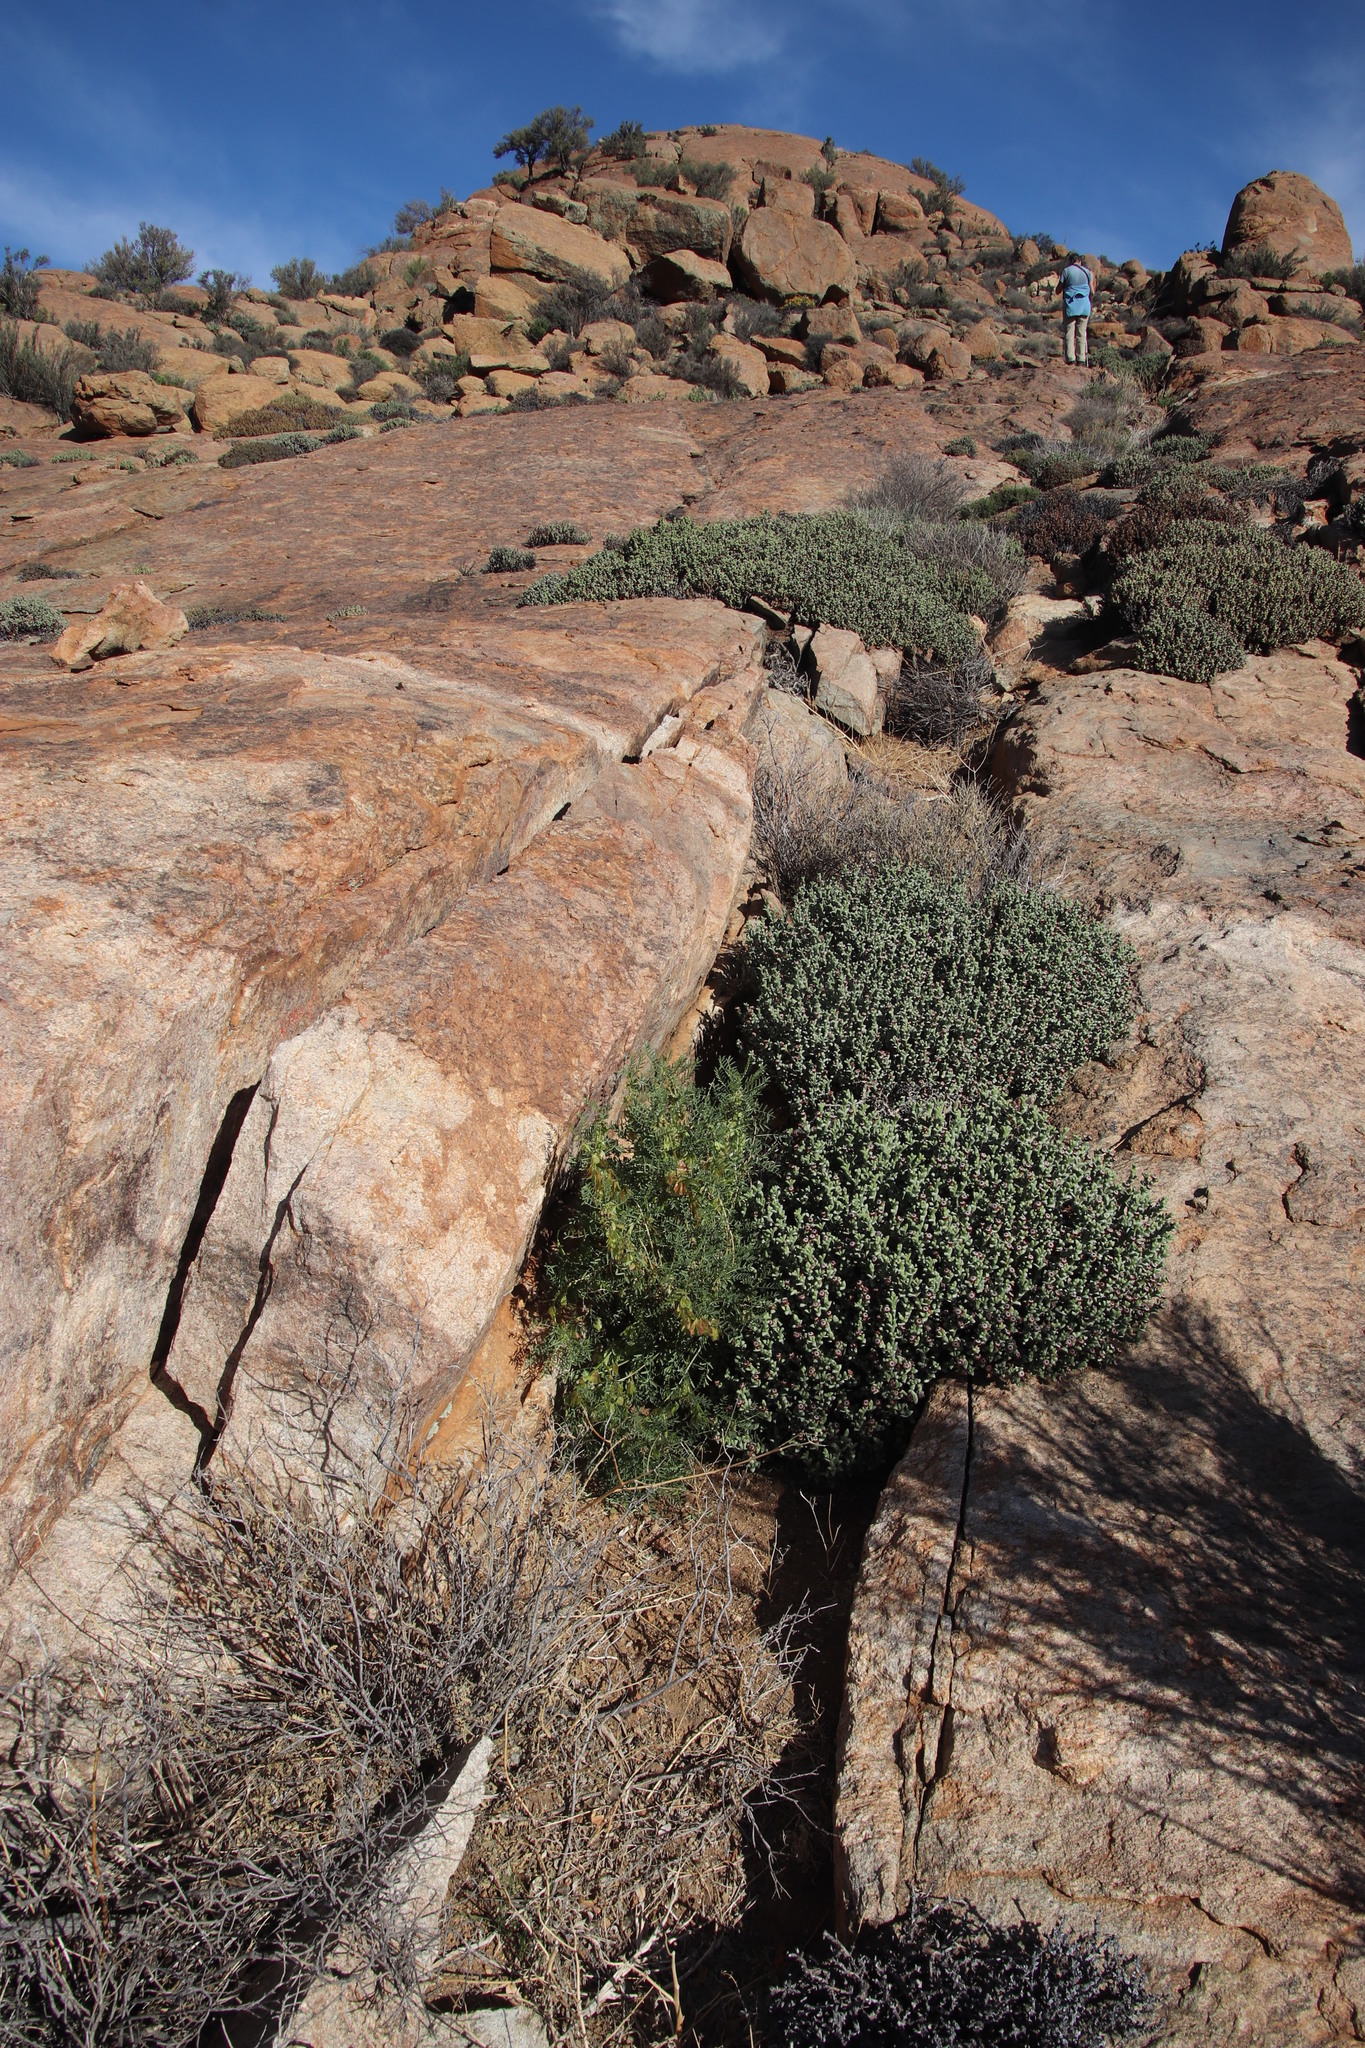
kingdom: Plantae
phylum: Tracheophyta
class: Magnoliopsida
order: Fabales
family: Fabaceae
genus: Lessertia
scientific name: Lessertia frutescens
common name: Balloon-pea
